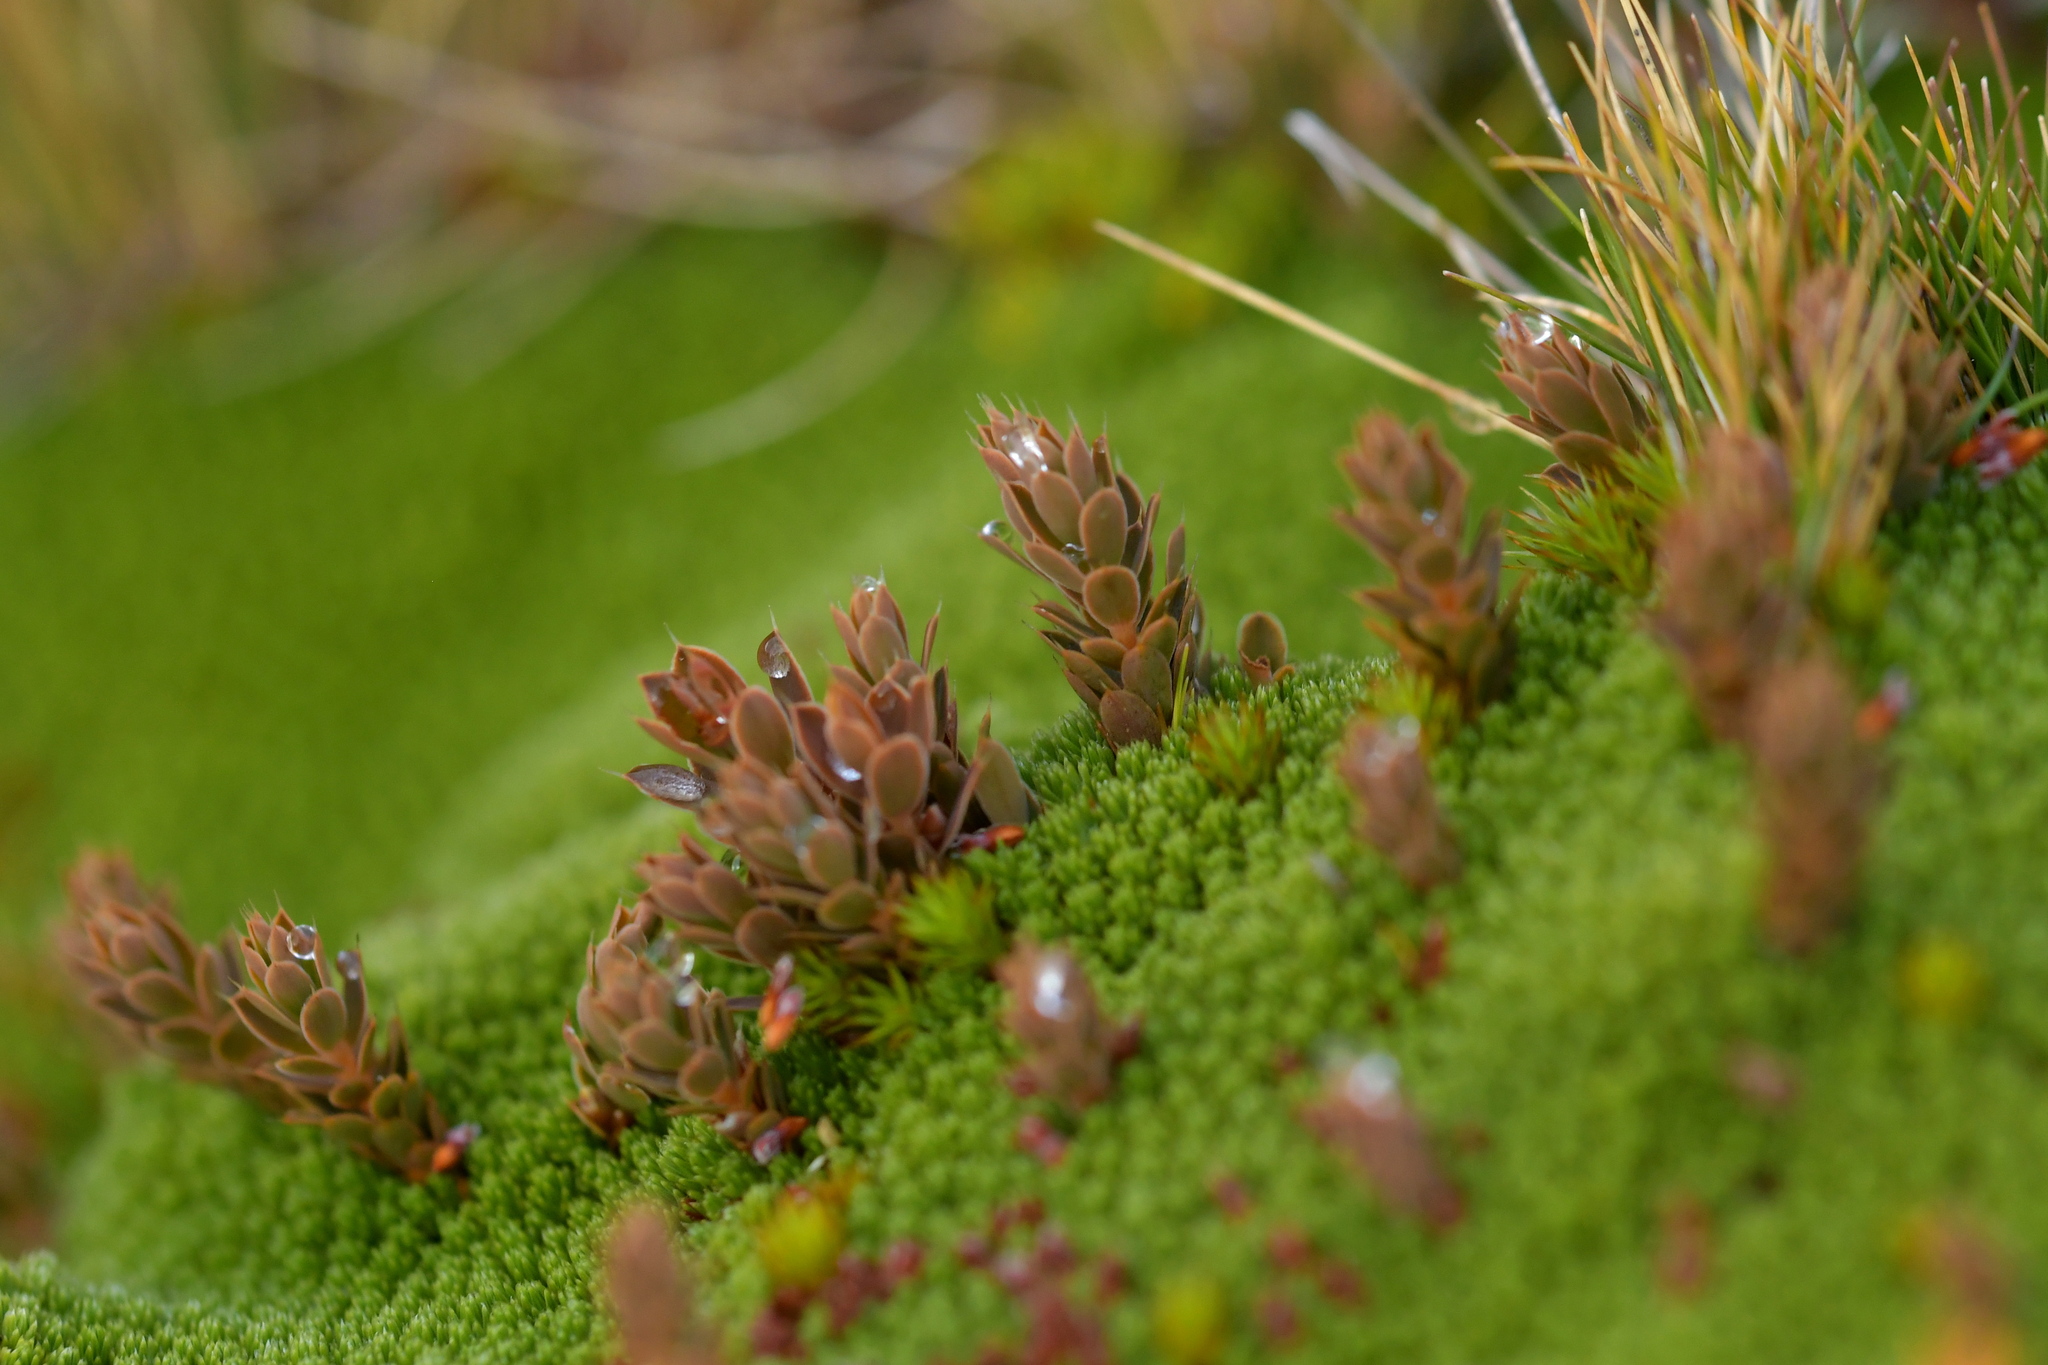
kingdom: Plantae
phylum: Tracheophyta
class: Magnoliopsida
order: Ericales
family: Ericaceae
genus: Styphelia
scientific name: Styphelia nesophila
